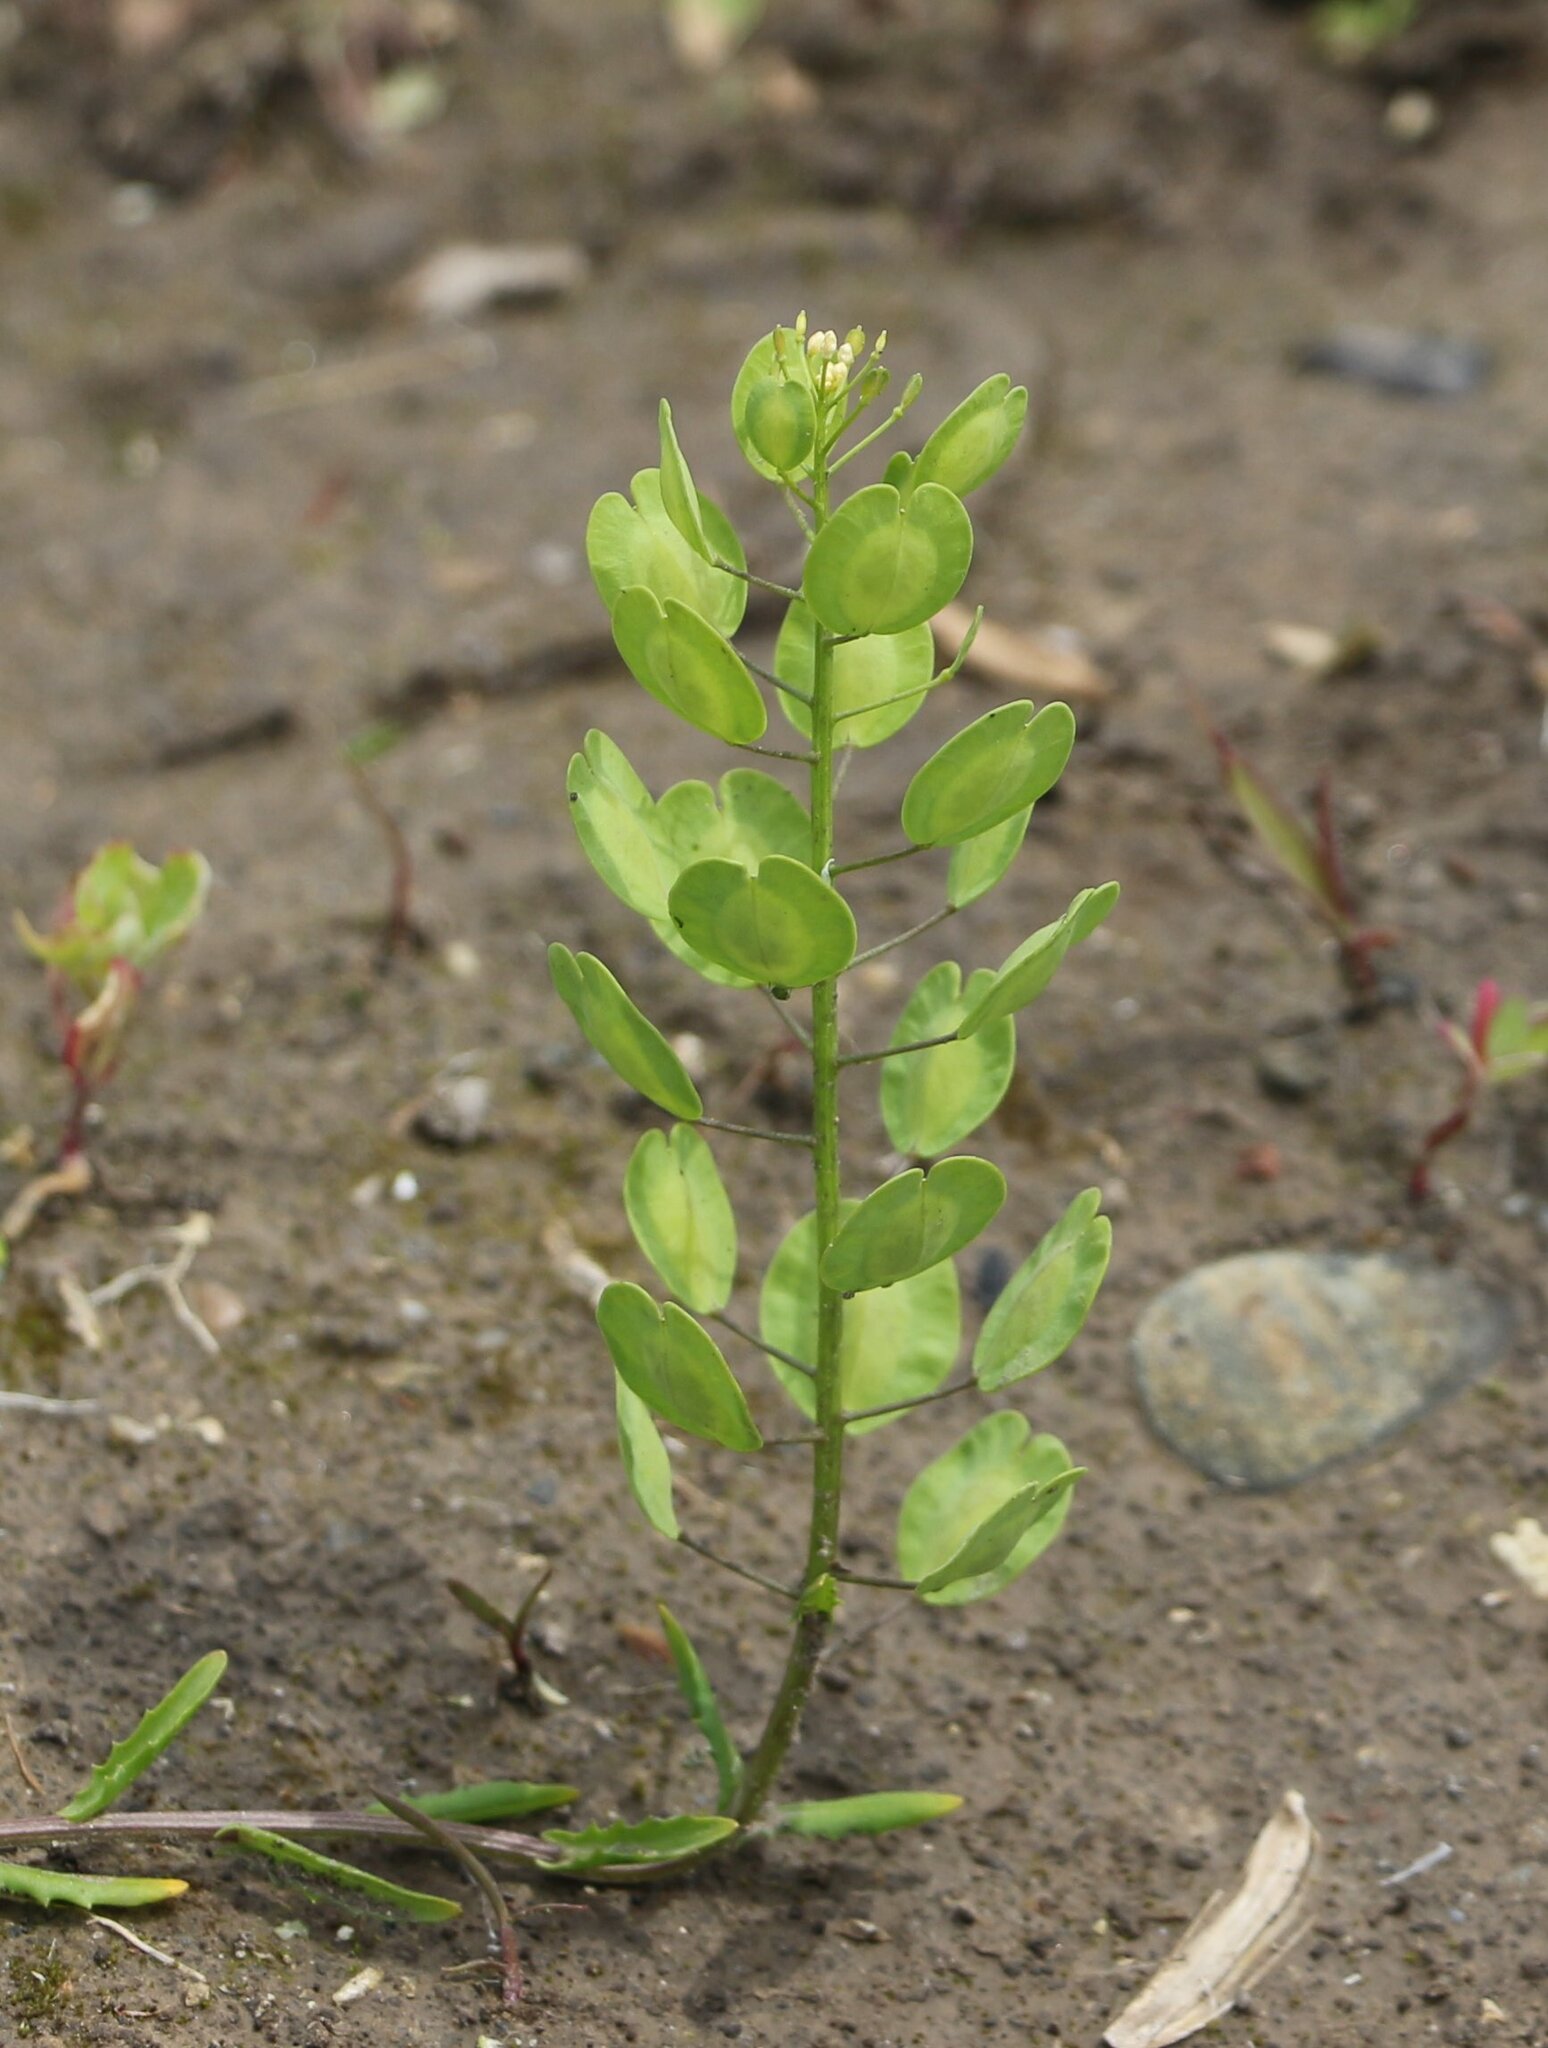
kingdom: Plantae
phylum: Tracheophyta
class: Magnoliopsida
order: Brassicales
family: Brassicaceae
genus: Thlaspi
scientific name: Thlaspi arvense
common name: Field pennycress
